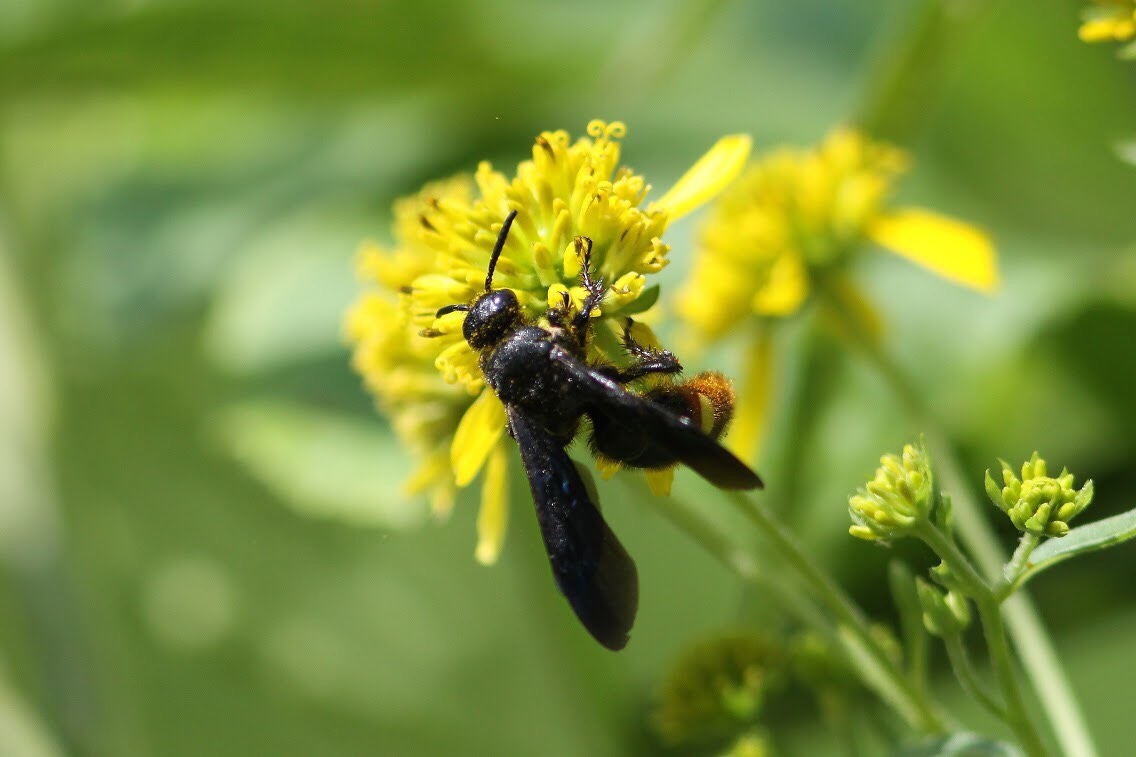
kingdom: Animalia
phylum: Arthropoda
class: Insecta
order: Hymenoptera
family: Scoliidae
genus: Scolia
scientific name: Scolia dubia
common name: Blue-winged scoliid wasp
